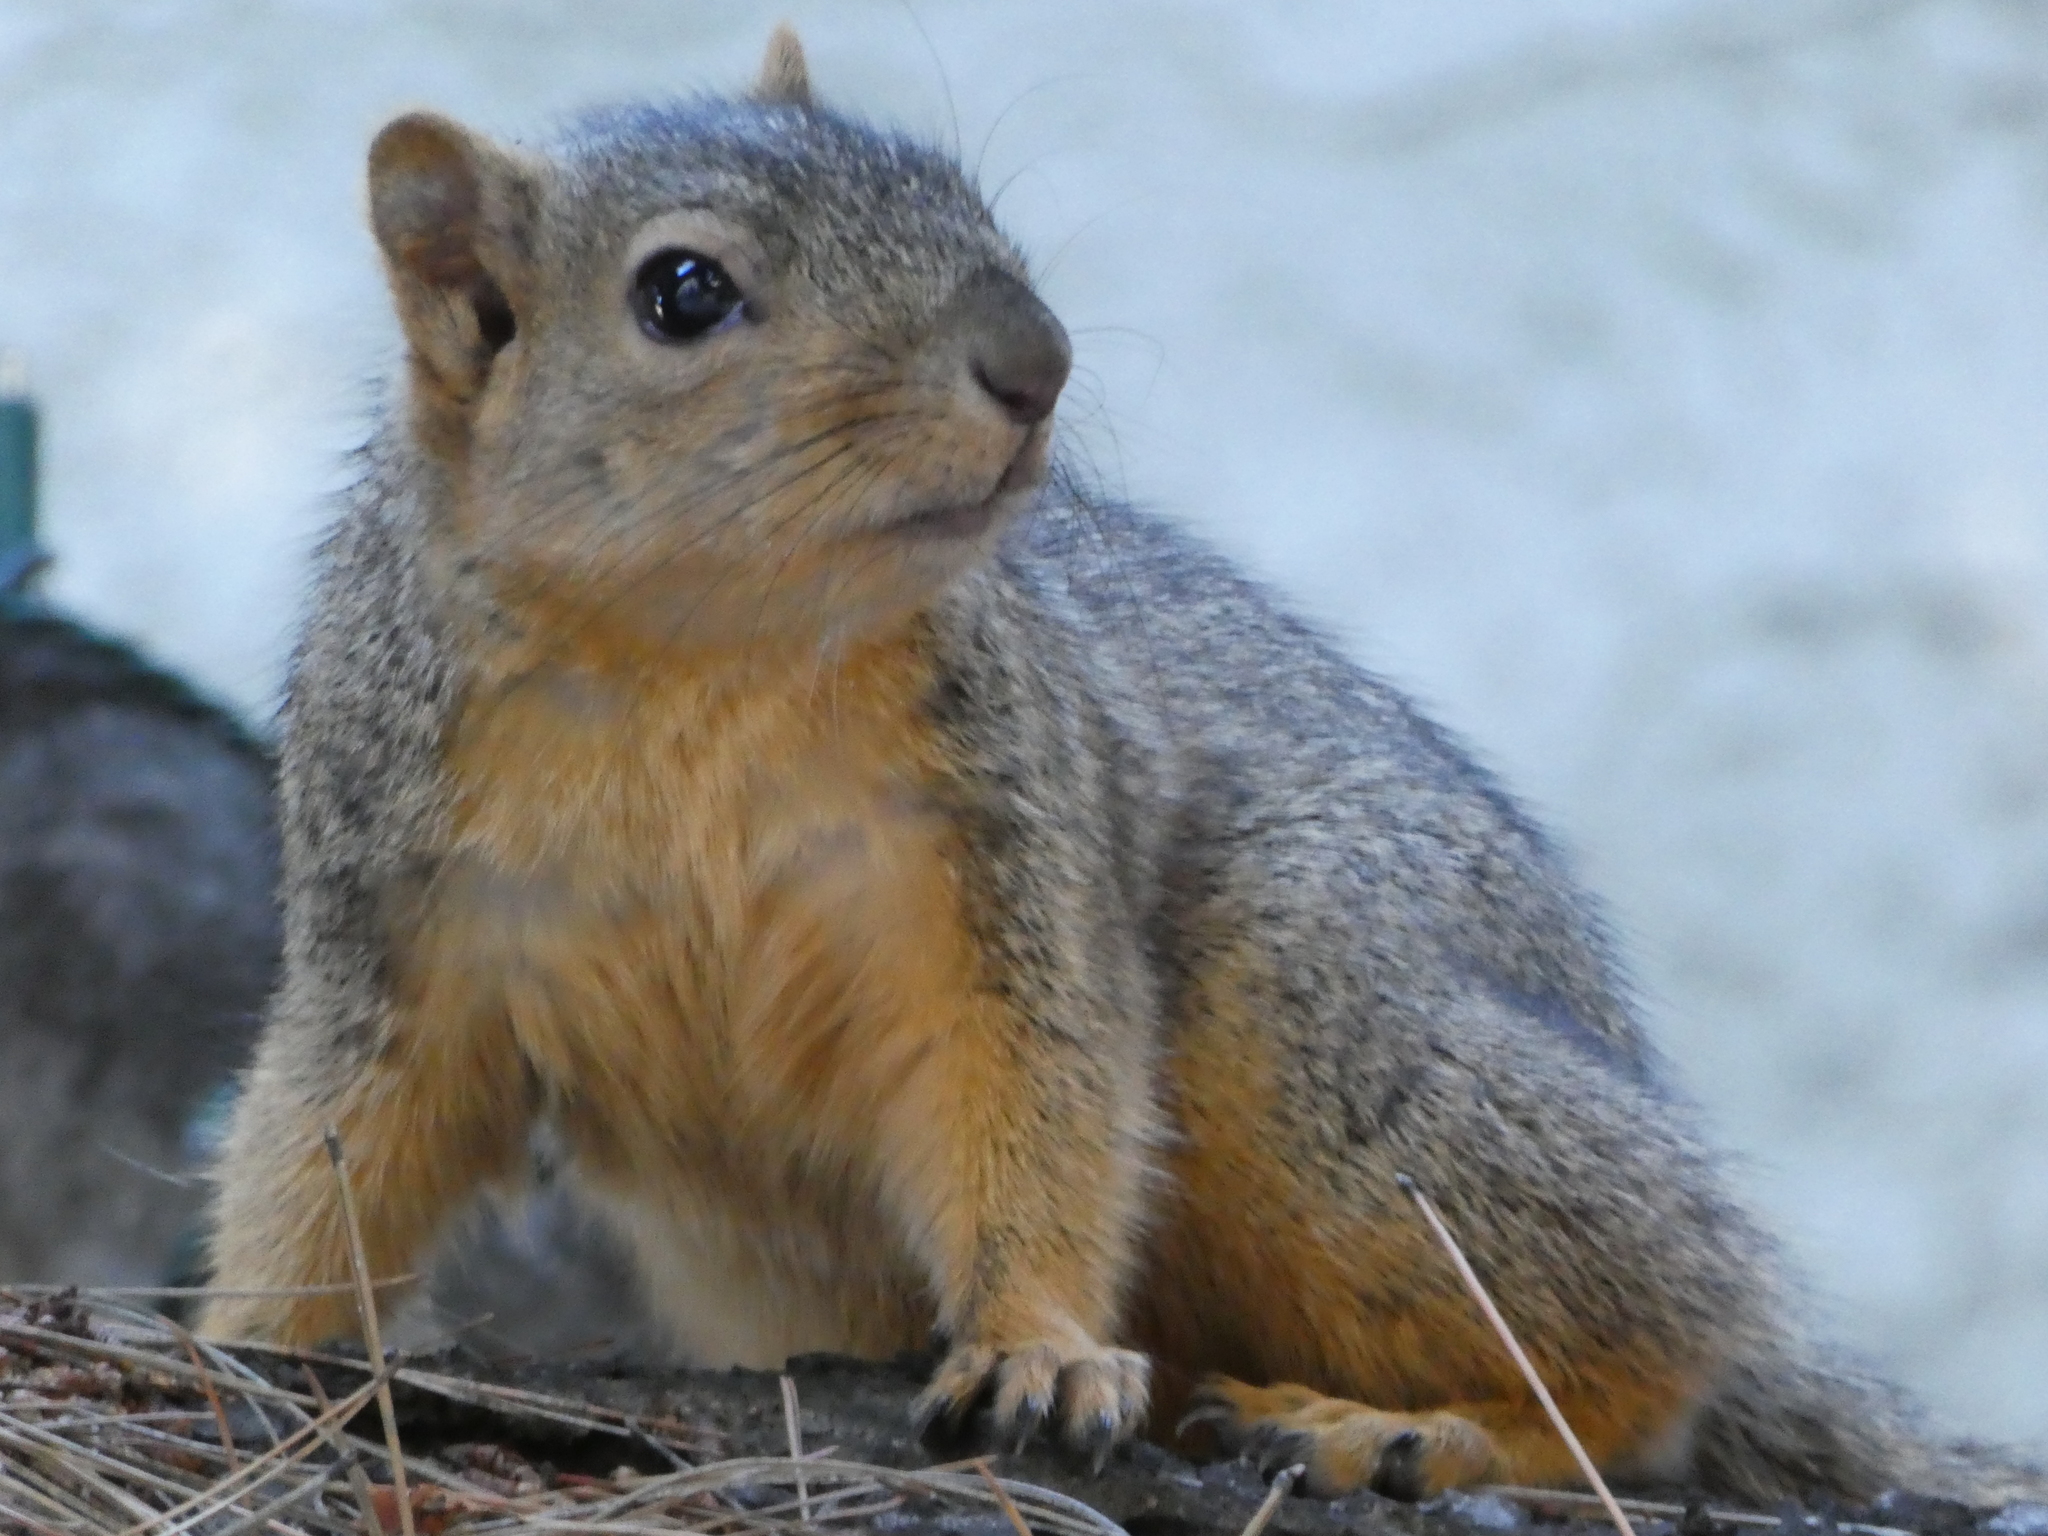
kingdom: Animalia
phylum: Chordata
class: Mammalia
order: Rodentia
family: Sciuridae
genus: Sciurus
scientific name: Sciurus niger
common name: Fox squirrel
